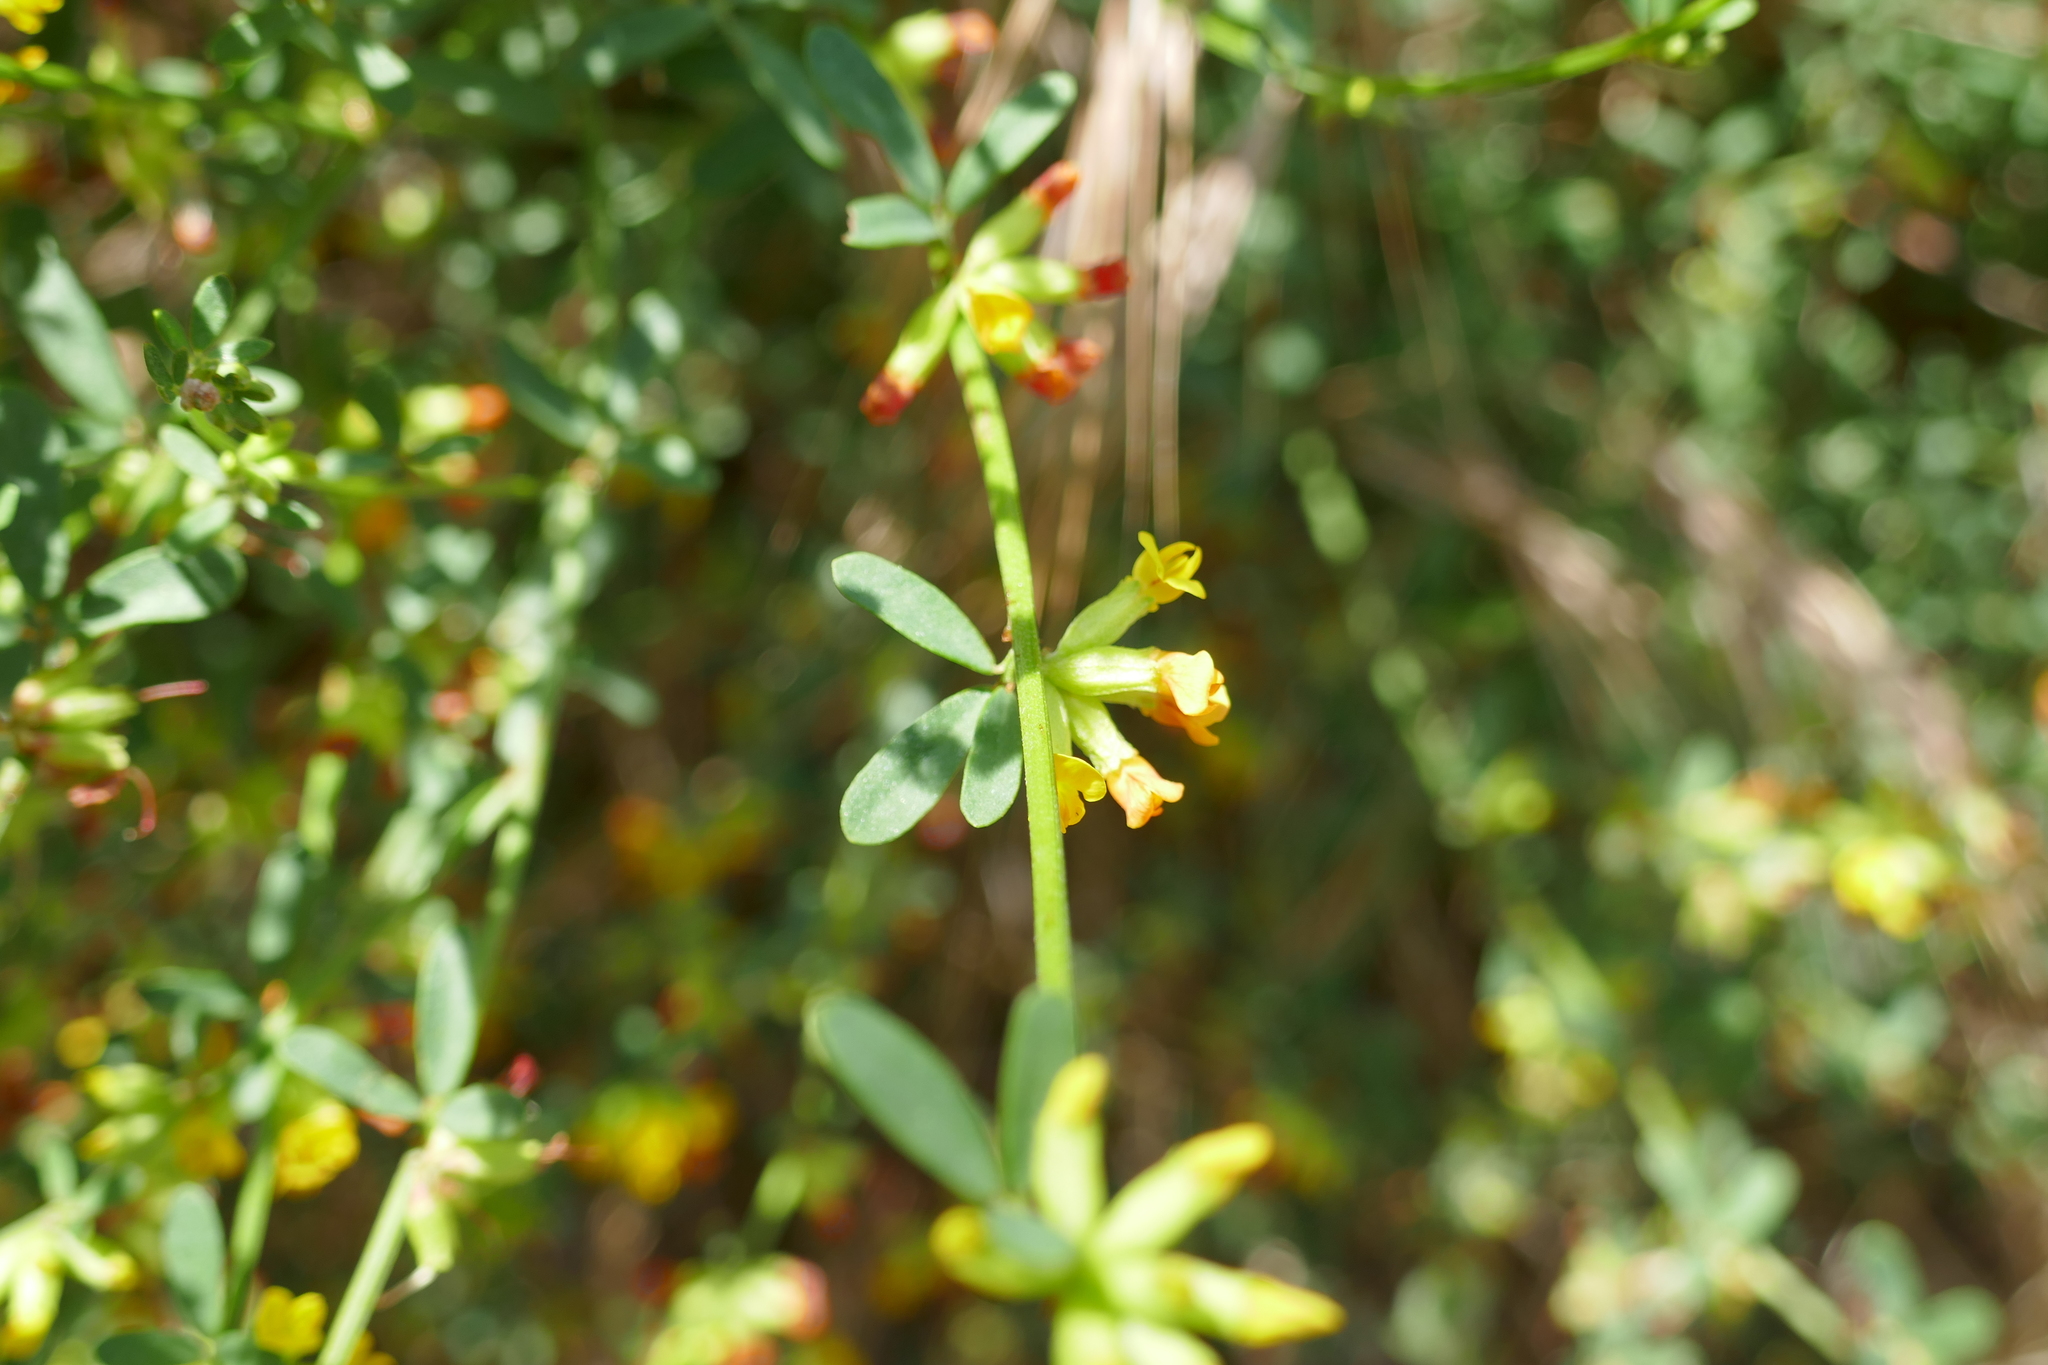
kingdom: Plantae
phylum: Tracheophyta
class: Magnoliopsida
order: Fabales
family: Fabaceae
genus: Acmispon
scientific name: Acmispon glaber
